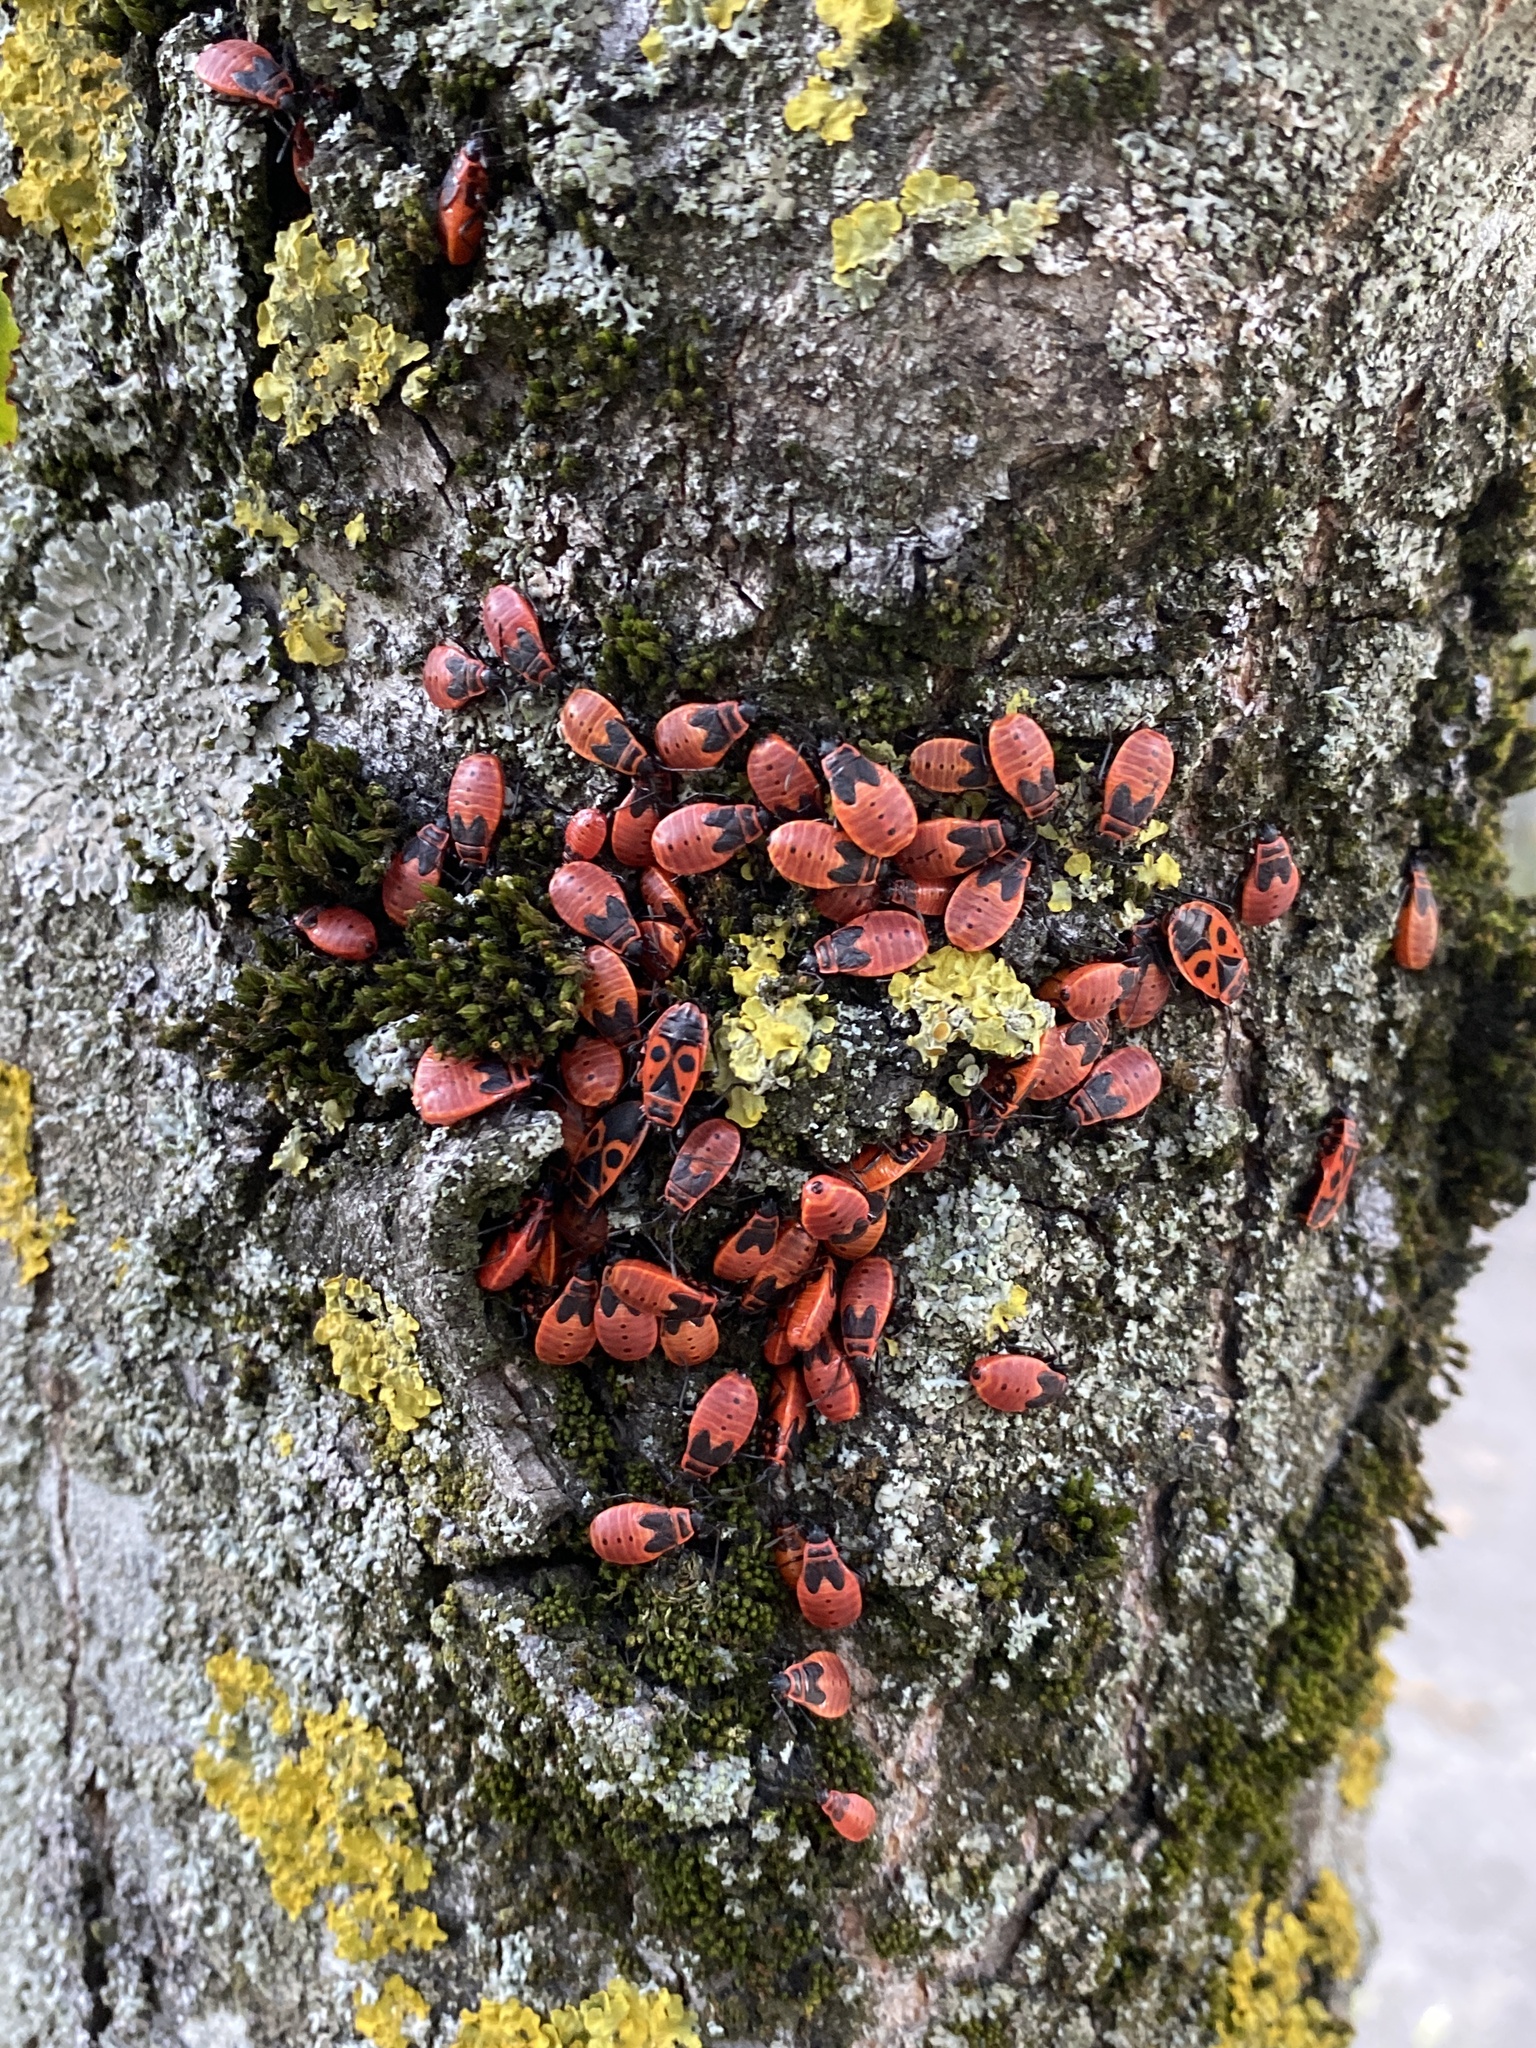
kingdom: Animalia
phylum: Arthropoda
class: Insecta
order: Hemiptera
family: Pyrrhocoridae
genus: Pyrrhocoris
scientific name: Pyrrhocoris apterus
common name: Firebug
